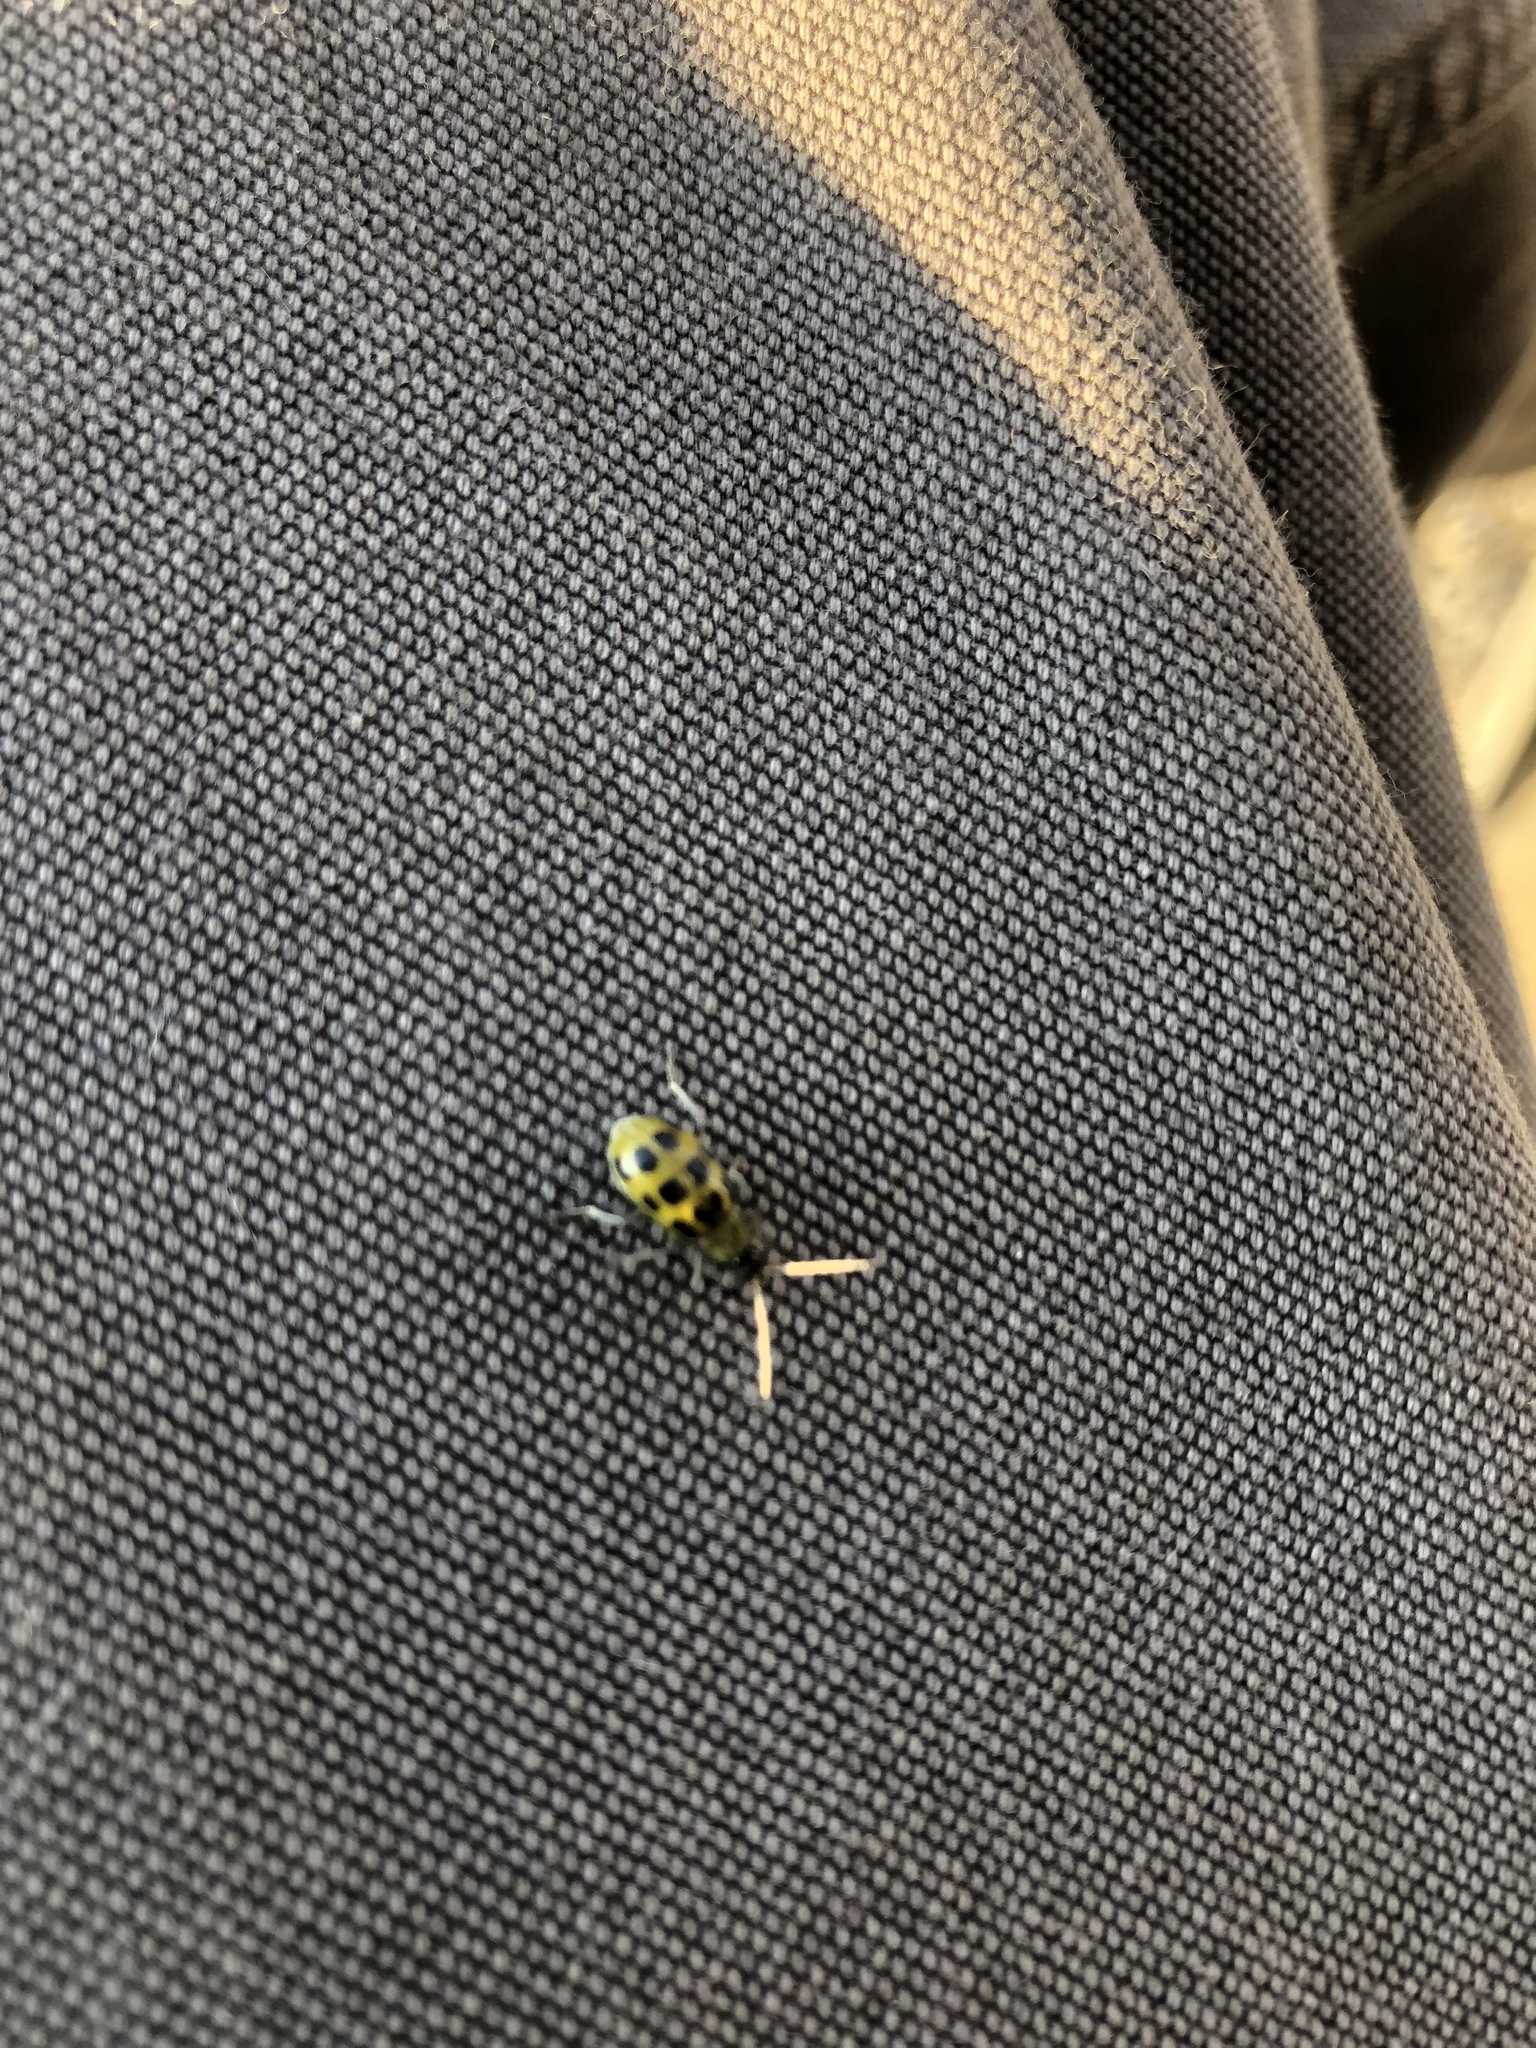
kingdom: Animalia
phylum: Arthropoda
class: Insecta
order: Coleoptera
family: Chrysomelidae
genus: Diabrotica
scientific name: Diabrotica undecimpunctata
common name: Spotted cucumber beetle
